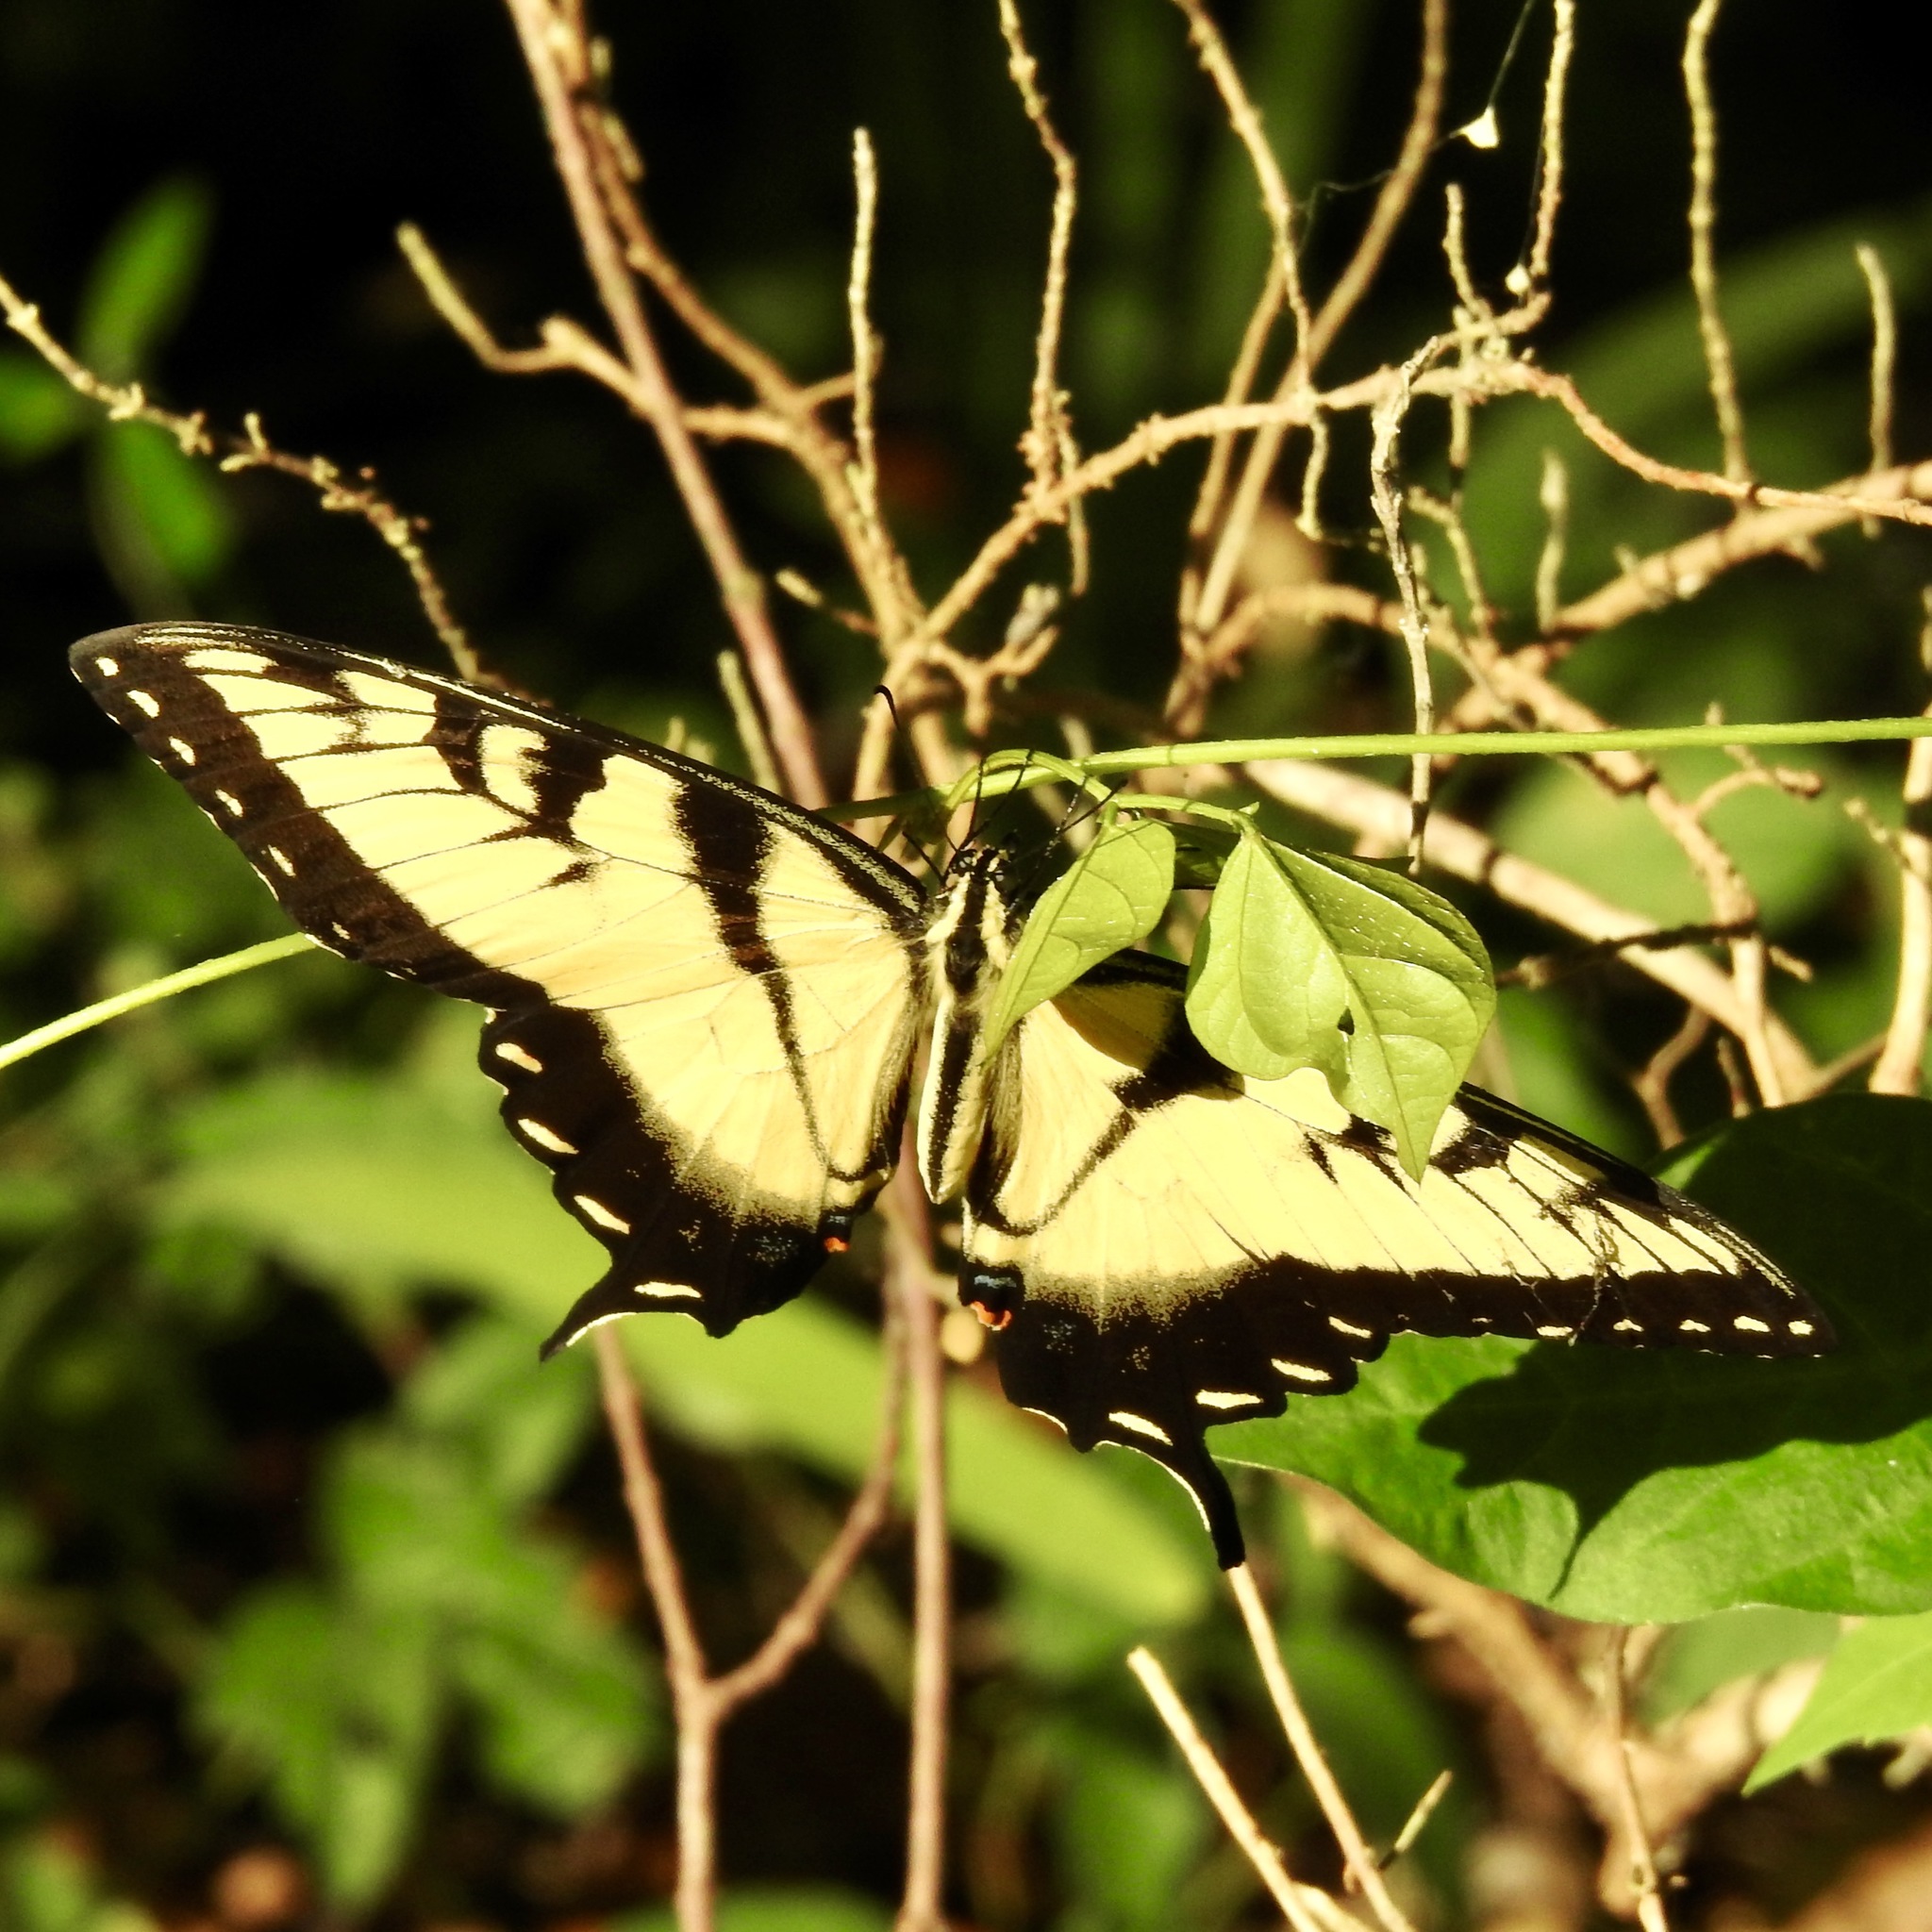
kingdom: Animalia
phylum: Arthropoda
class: Insecta
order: Lepidoptera
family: Papilionidae
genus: Papilio
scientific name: Papilio glaucus
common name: Tiger swallowtail
